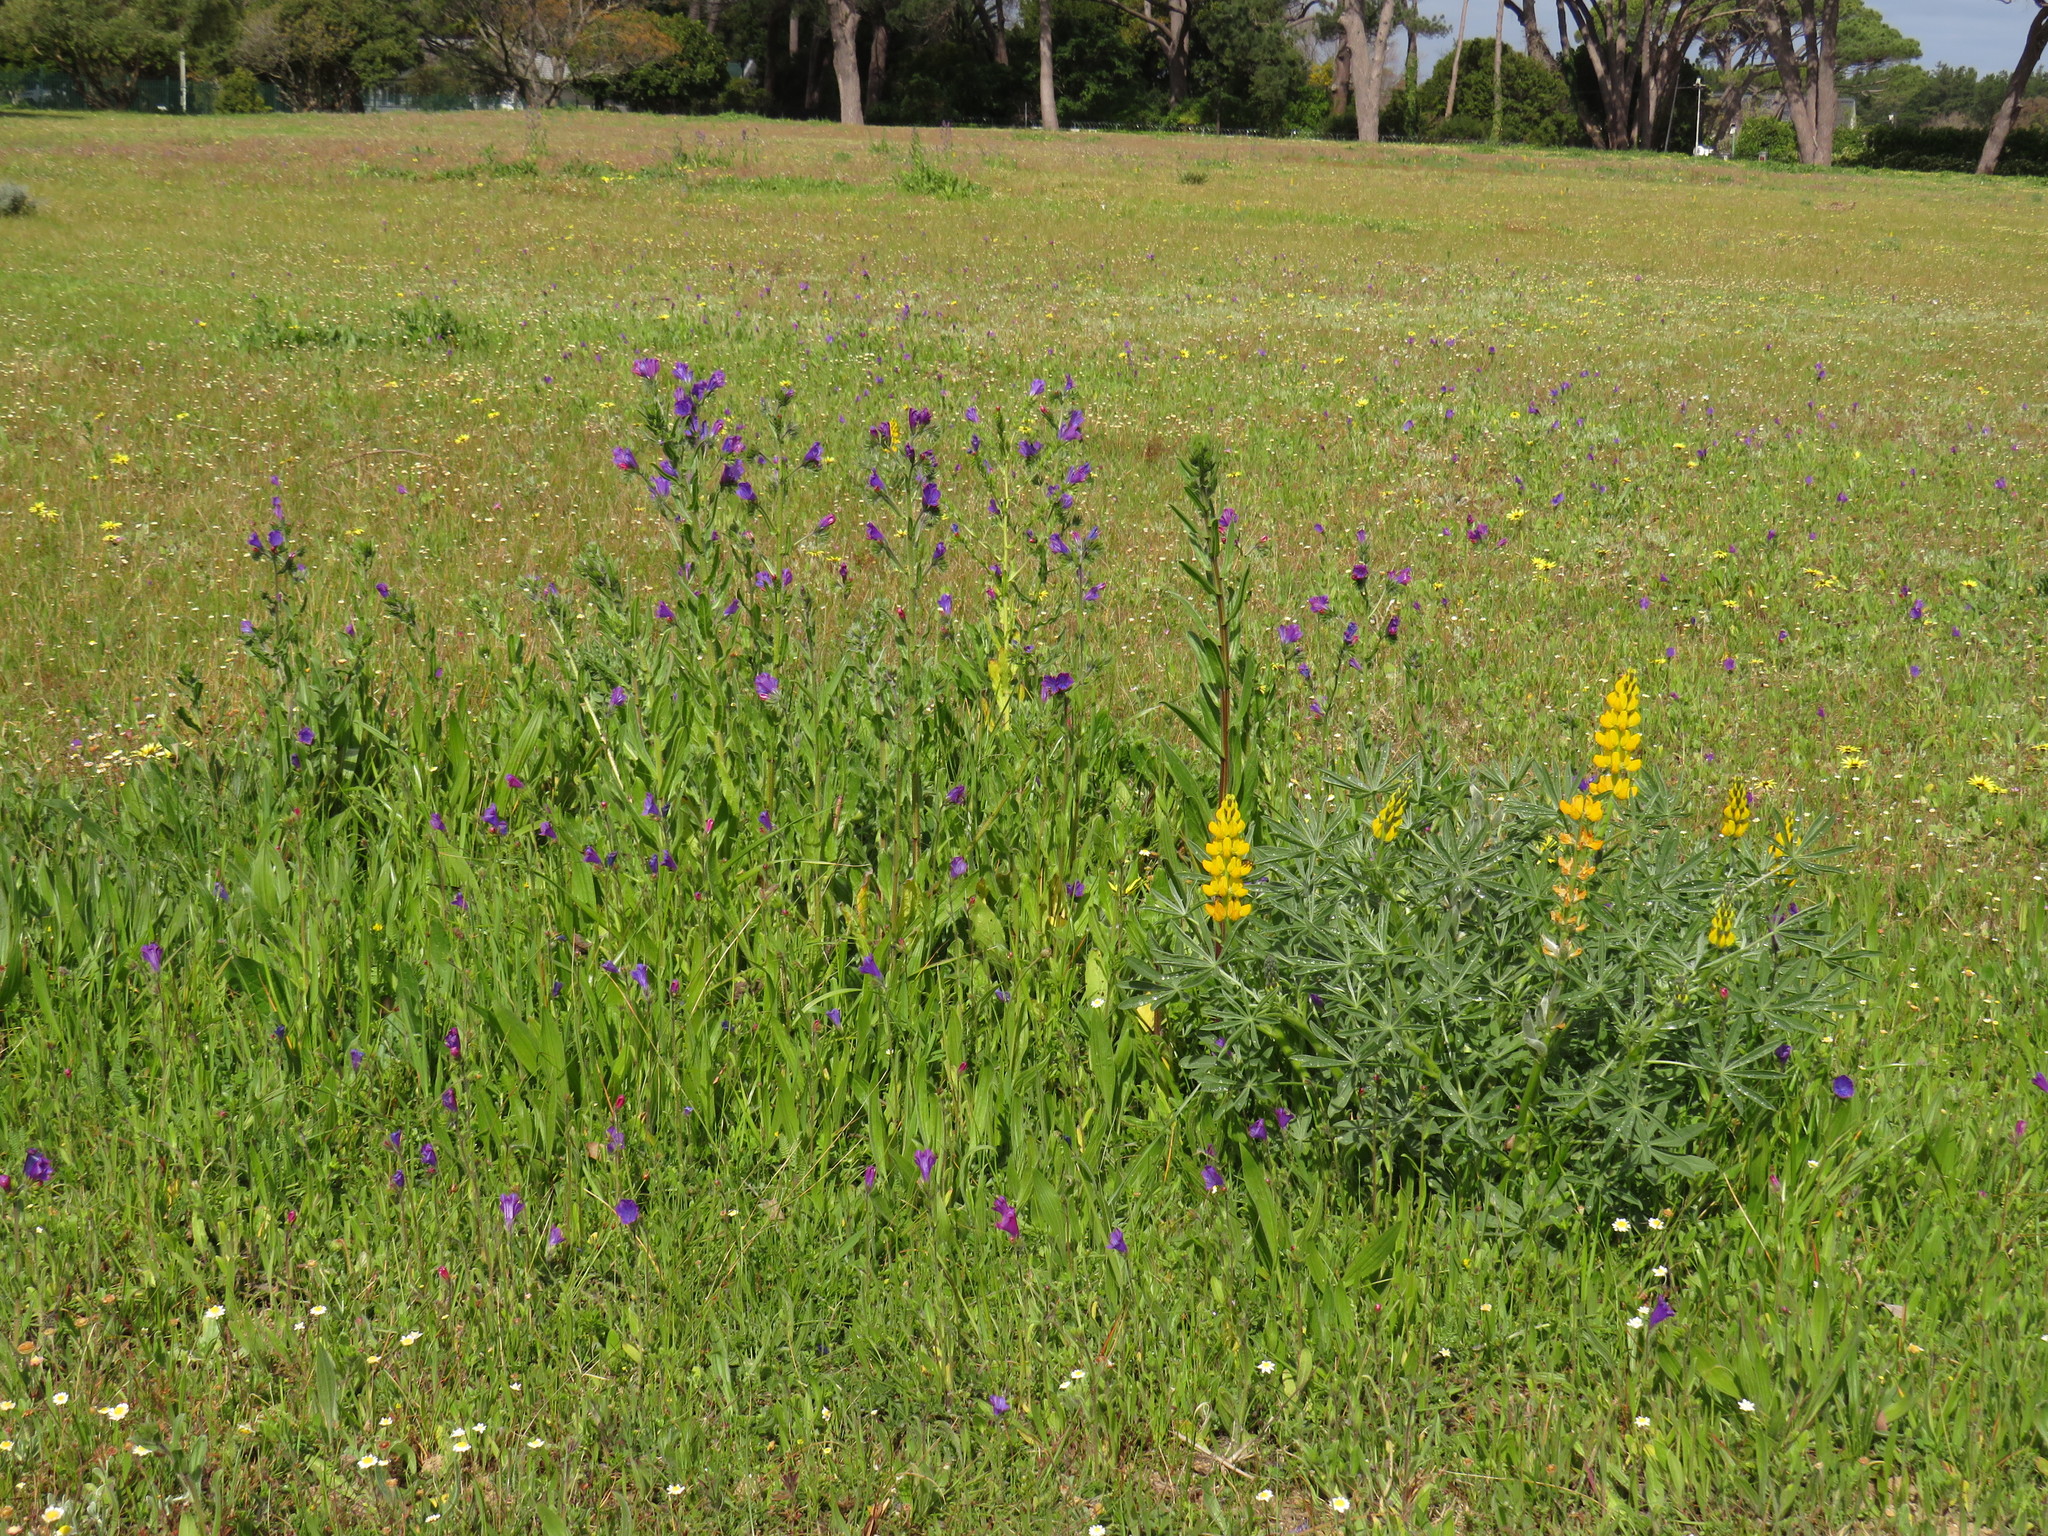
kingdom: Plantae
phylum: Tracheophyta
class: Magnoliopsida
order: Boraginales
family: Boraginaceae
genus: Echium
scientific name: Echium plantagineum
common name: Purple viper's-bugloss
